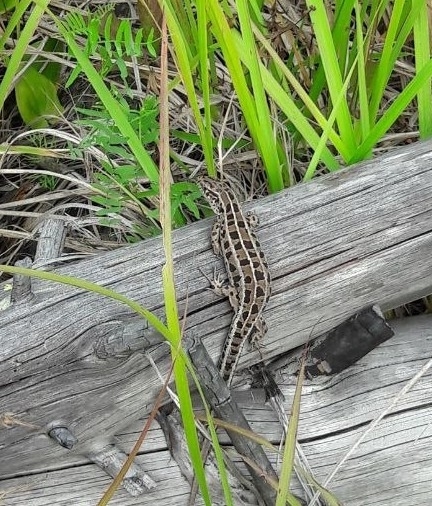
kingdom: Animalia
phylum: Chordata
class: Squamata
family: Lacertidae
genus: Lacerta
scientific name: Lacerta agilis
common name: Sand lizard
